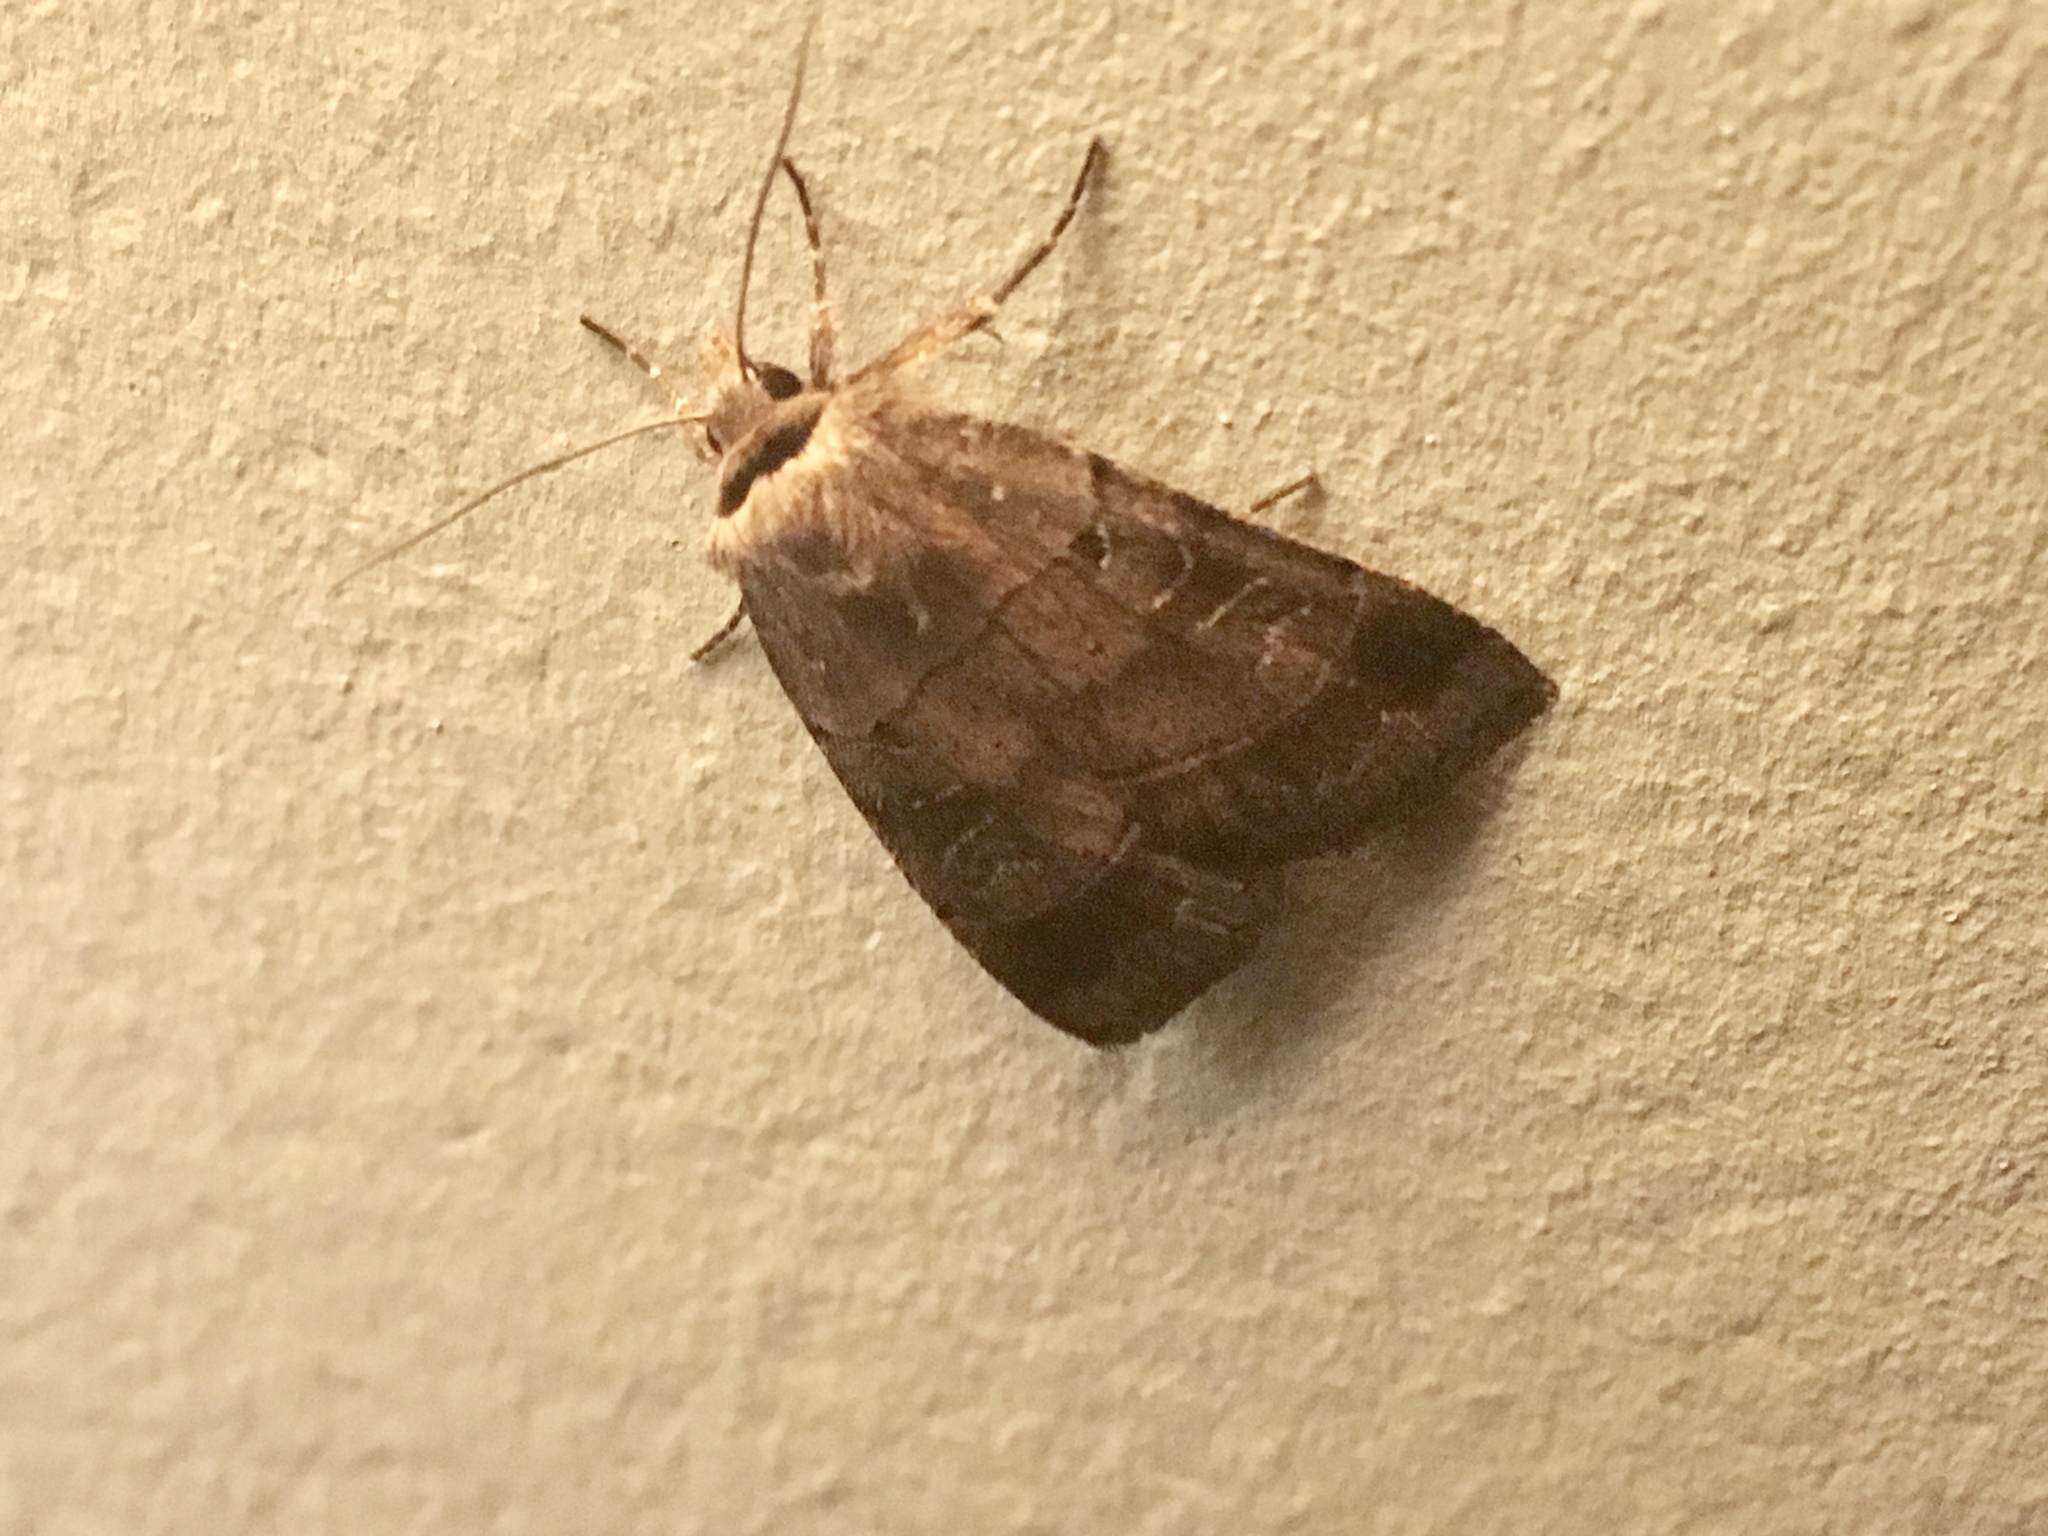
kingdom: Animalia
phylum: Arthropoda
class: Insecta
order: Lepidoptera
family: Noctuidae
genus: Agnorisma
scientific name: Agnorisma badinodis
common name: Pale-banded dart
